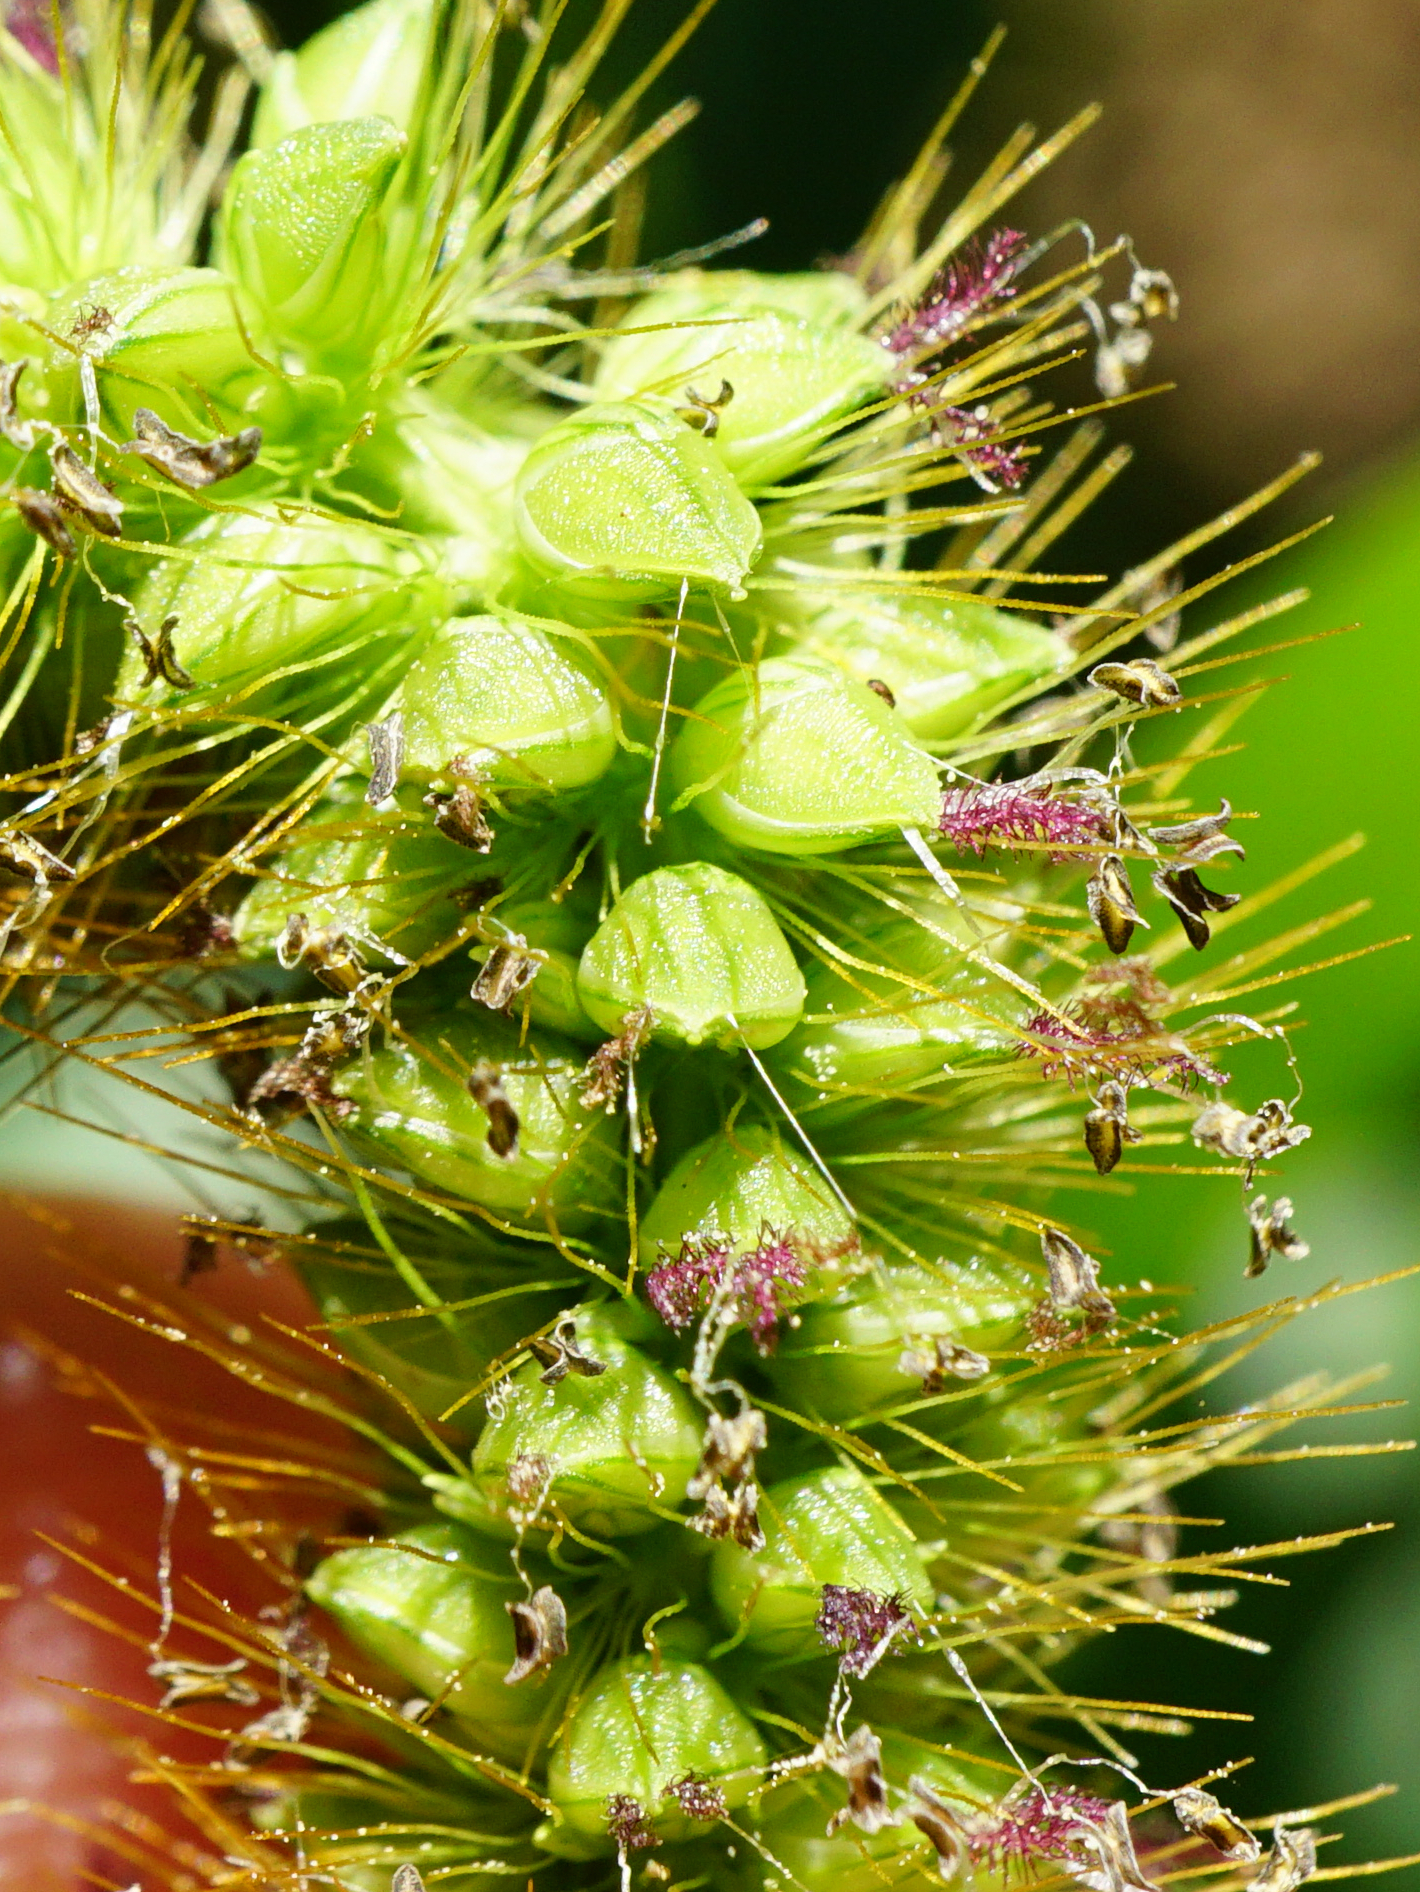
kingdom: Plantae
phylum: Tracheophyta
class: Liliopsida
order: Poales
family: Poaceae
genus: Setaria
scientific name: Setaria pumila
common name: Yellow bristle-grass
